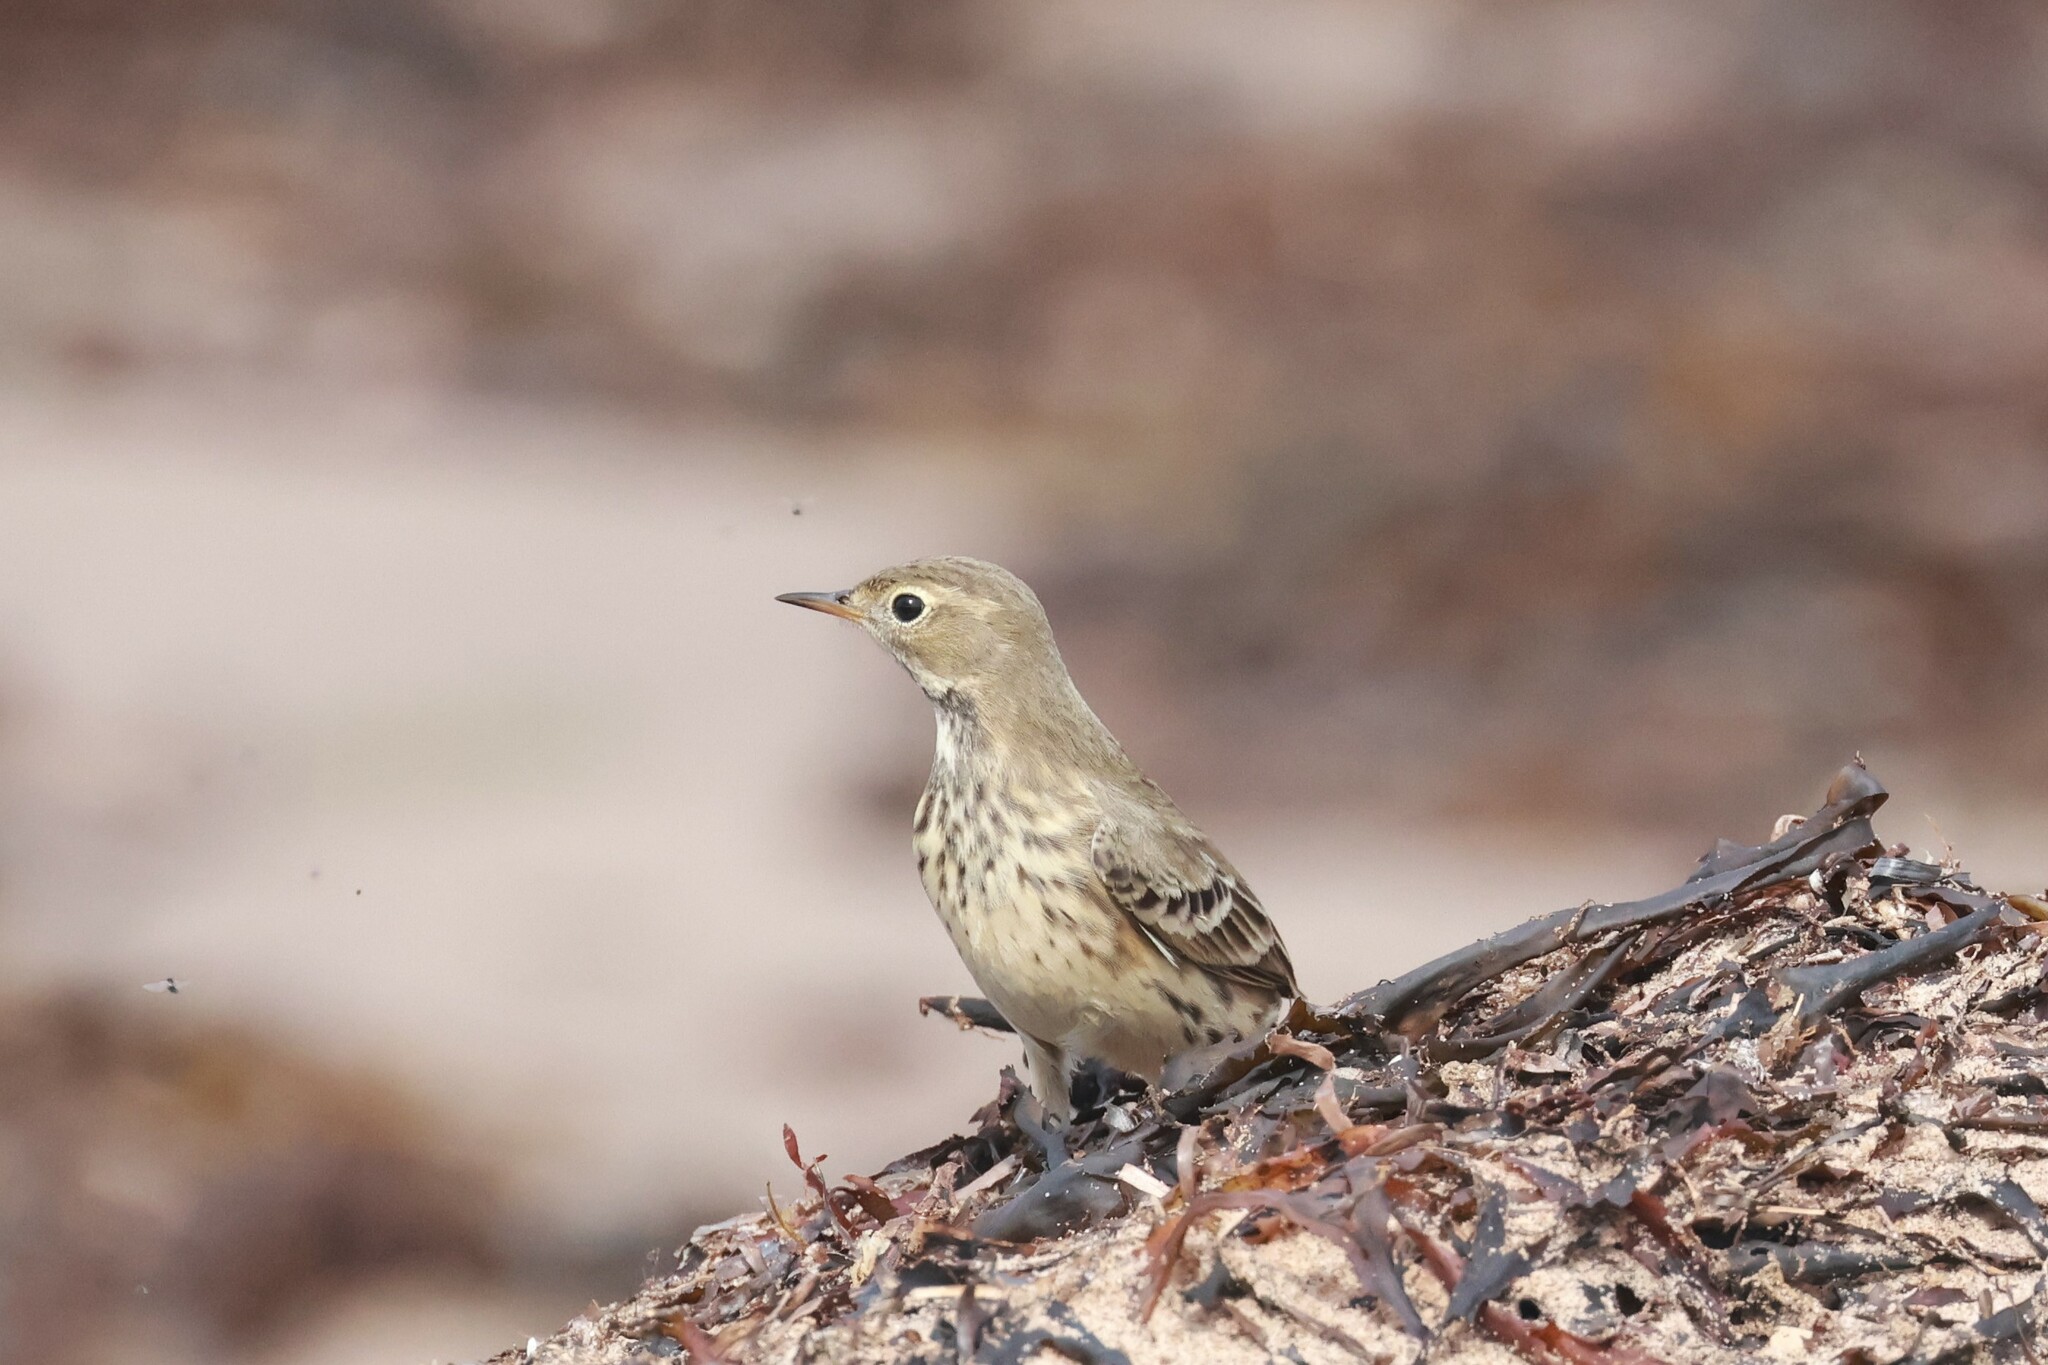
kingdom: Animalia
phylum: Chordata
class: Aves
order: Passeriformes
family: Motacillidae
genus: Anthus
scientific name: Anthus rubescens
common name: Buff-bellied pipit
